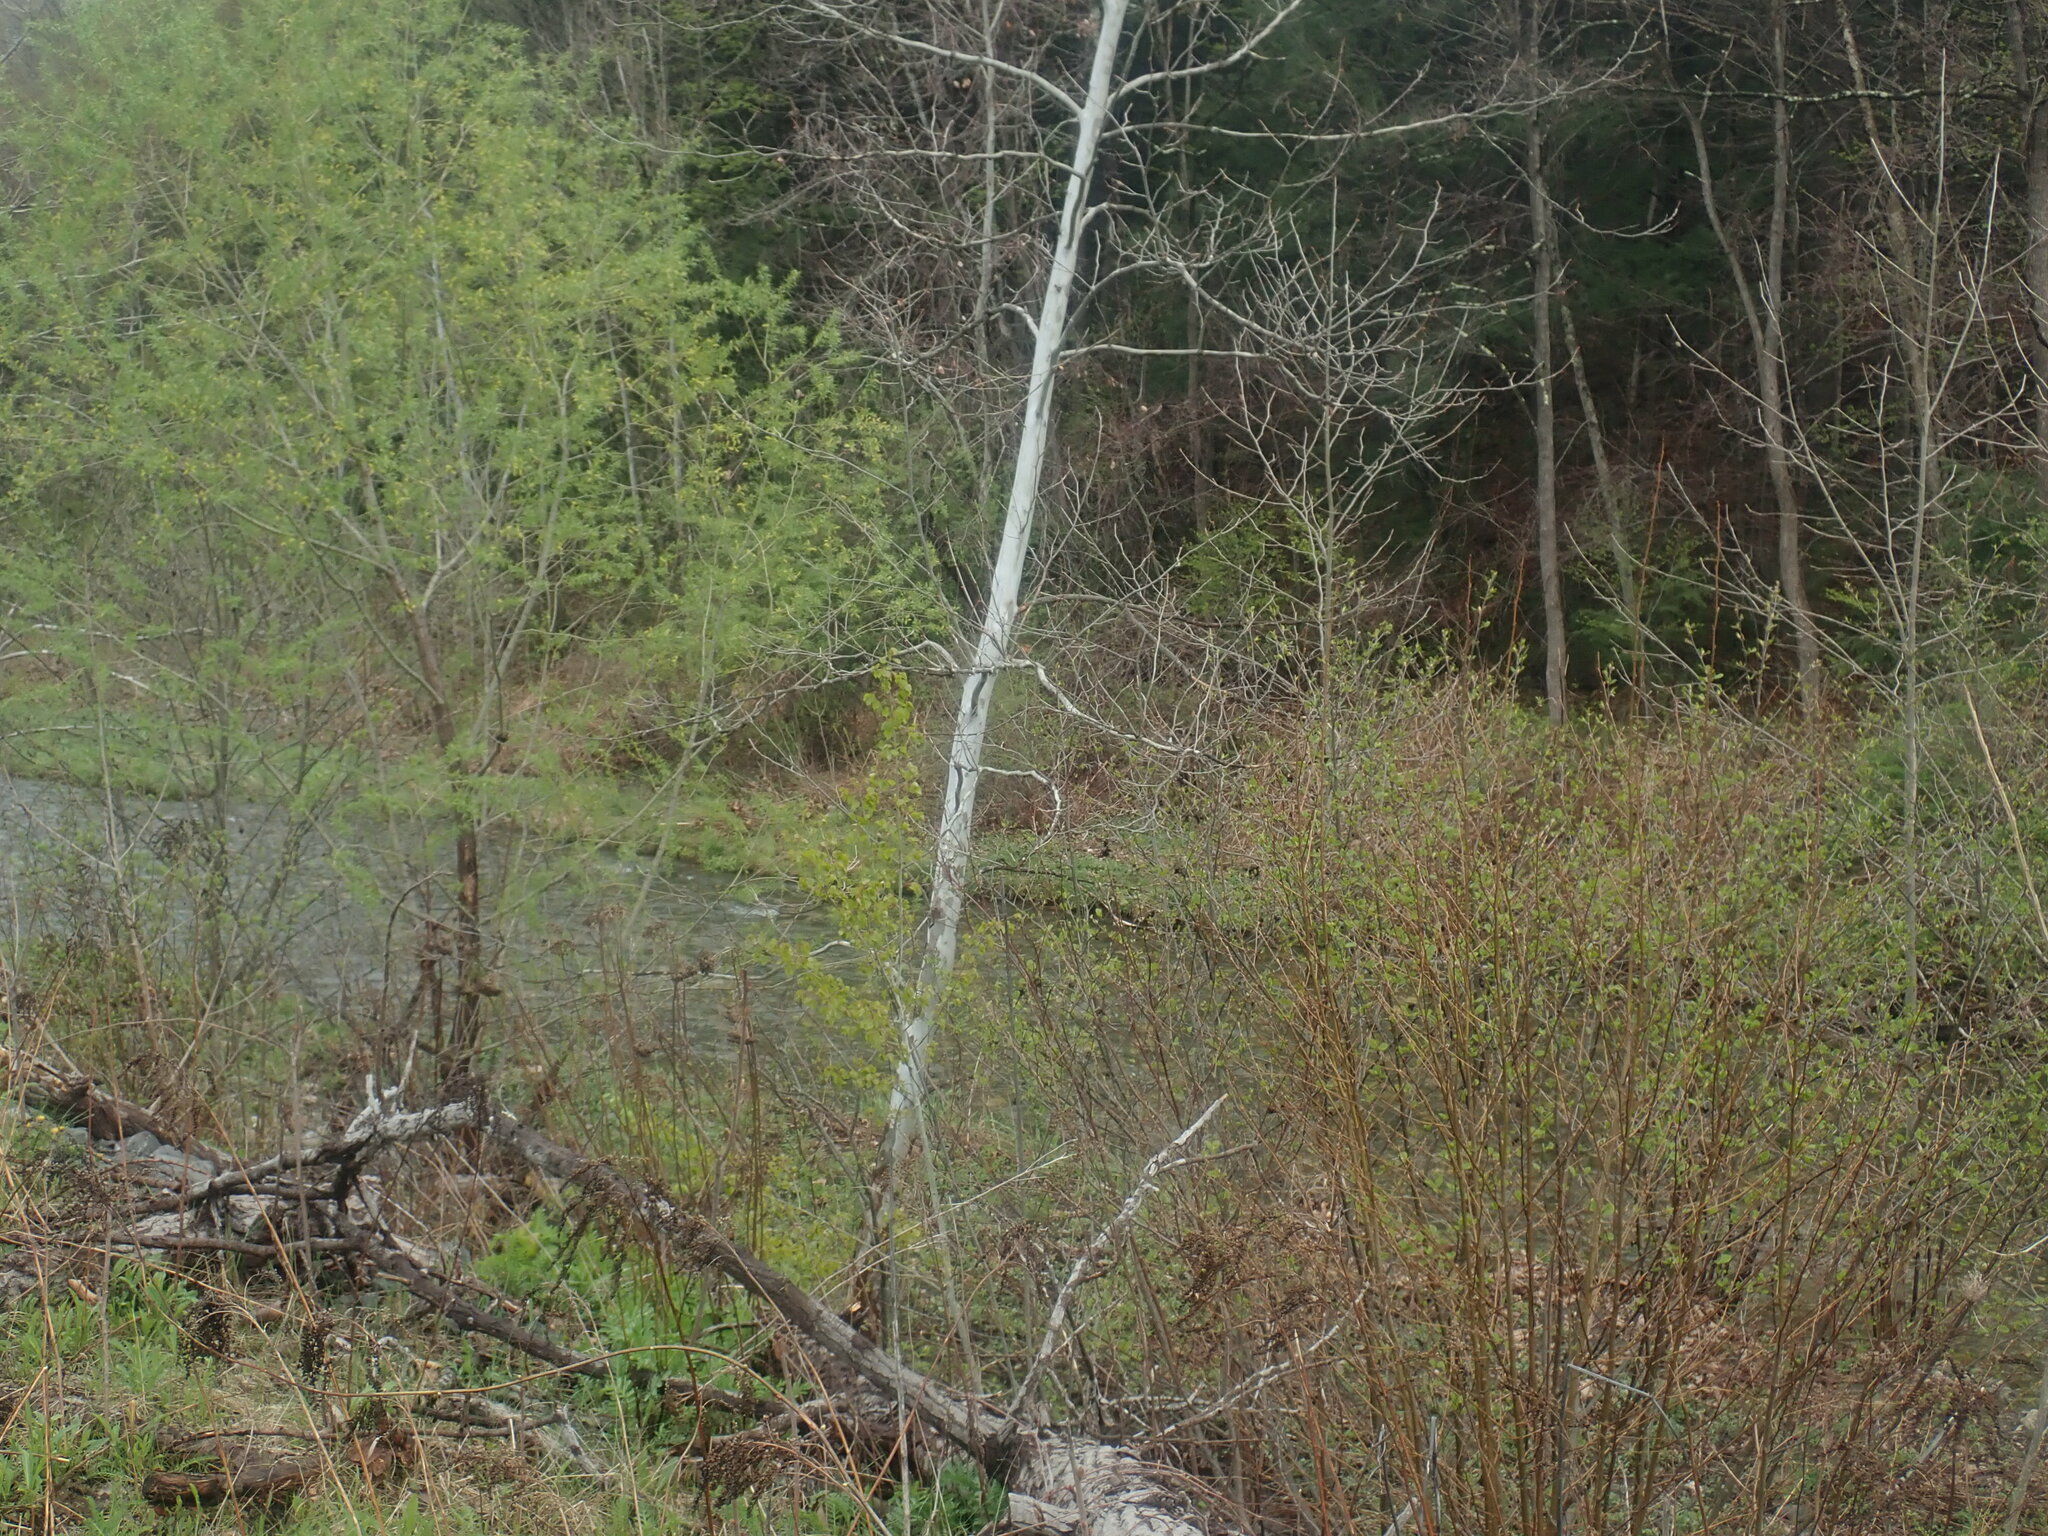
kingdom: Plantae
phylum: Tracheophyta
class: Magnoliopsida
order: Proteales
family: Platanaceae
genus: Platanus
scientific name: Platanus occidentalis
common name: American sycamore
